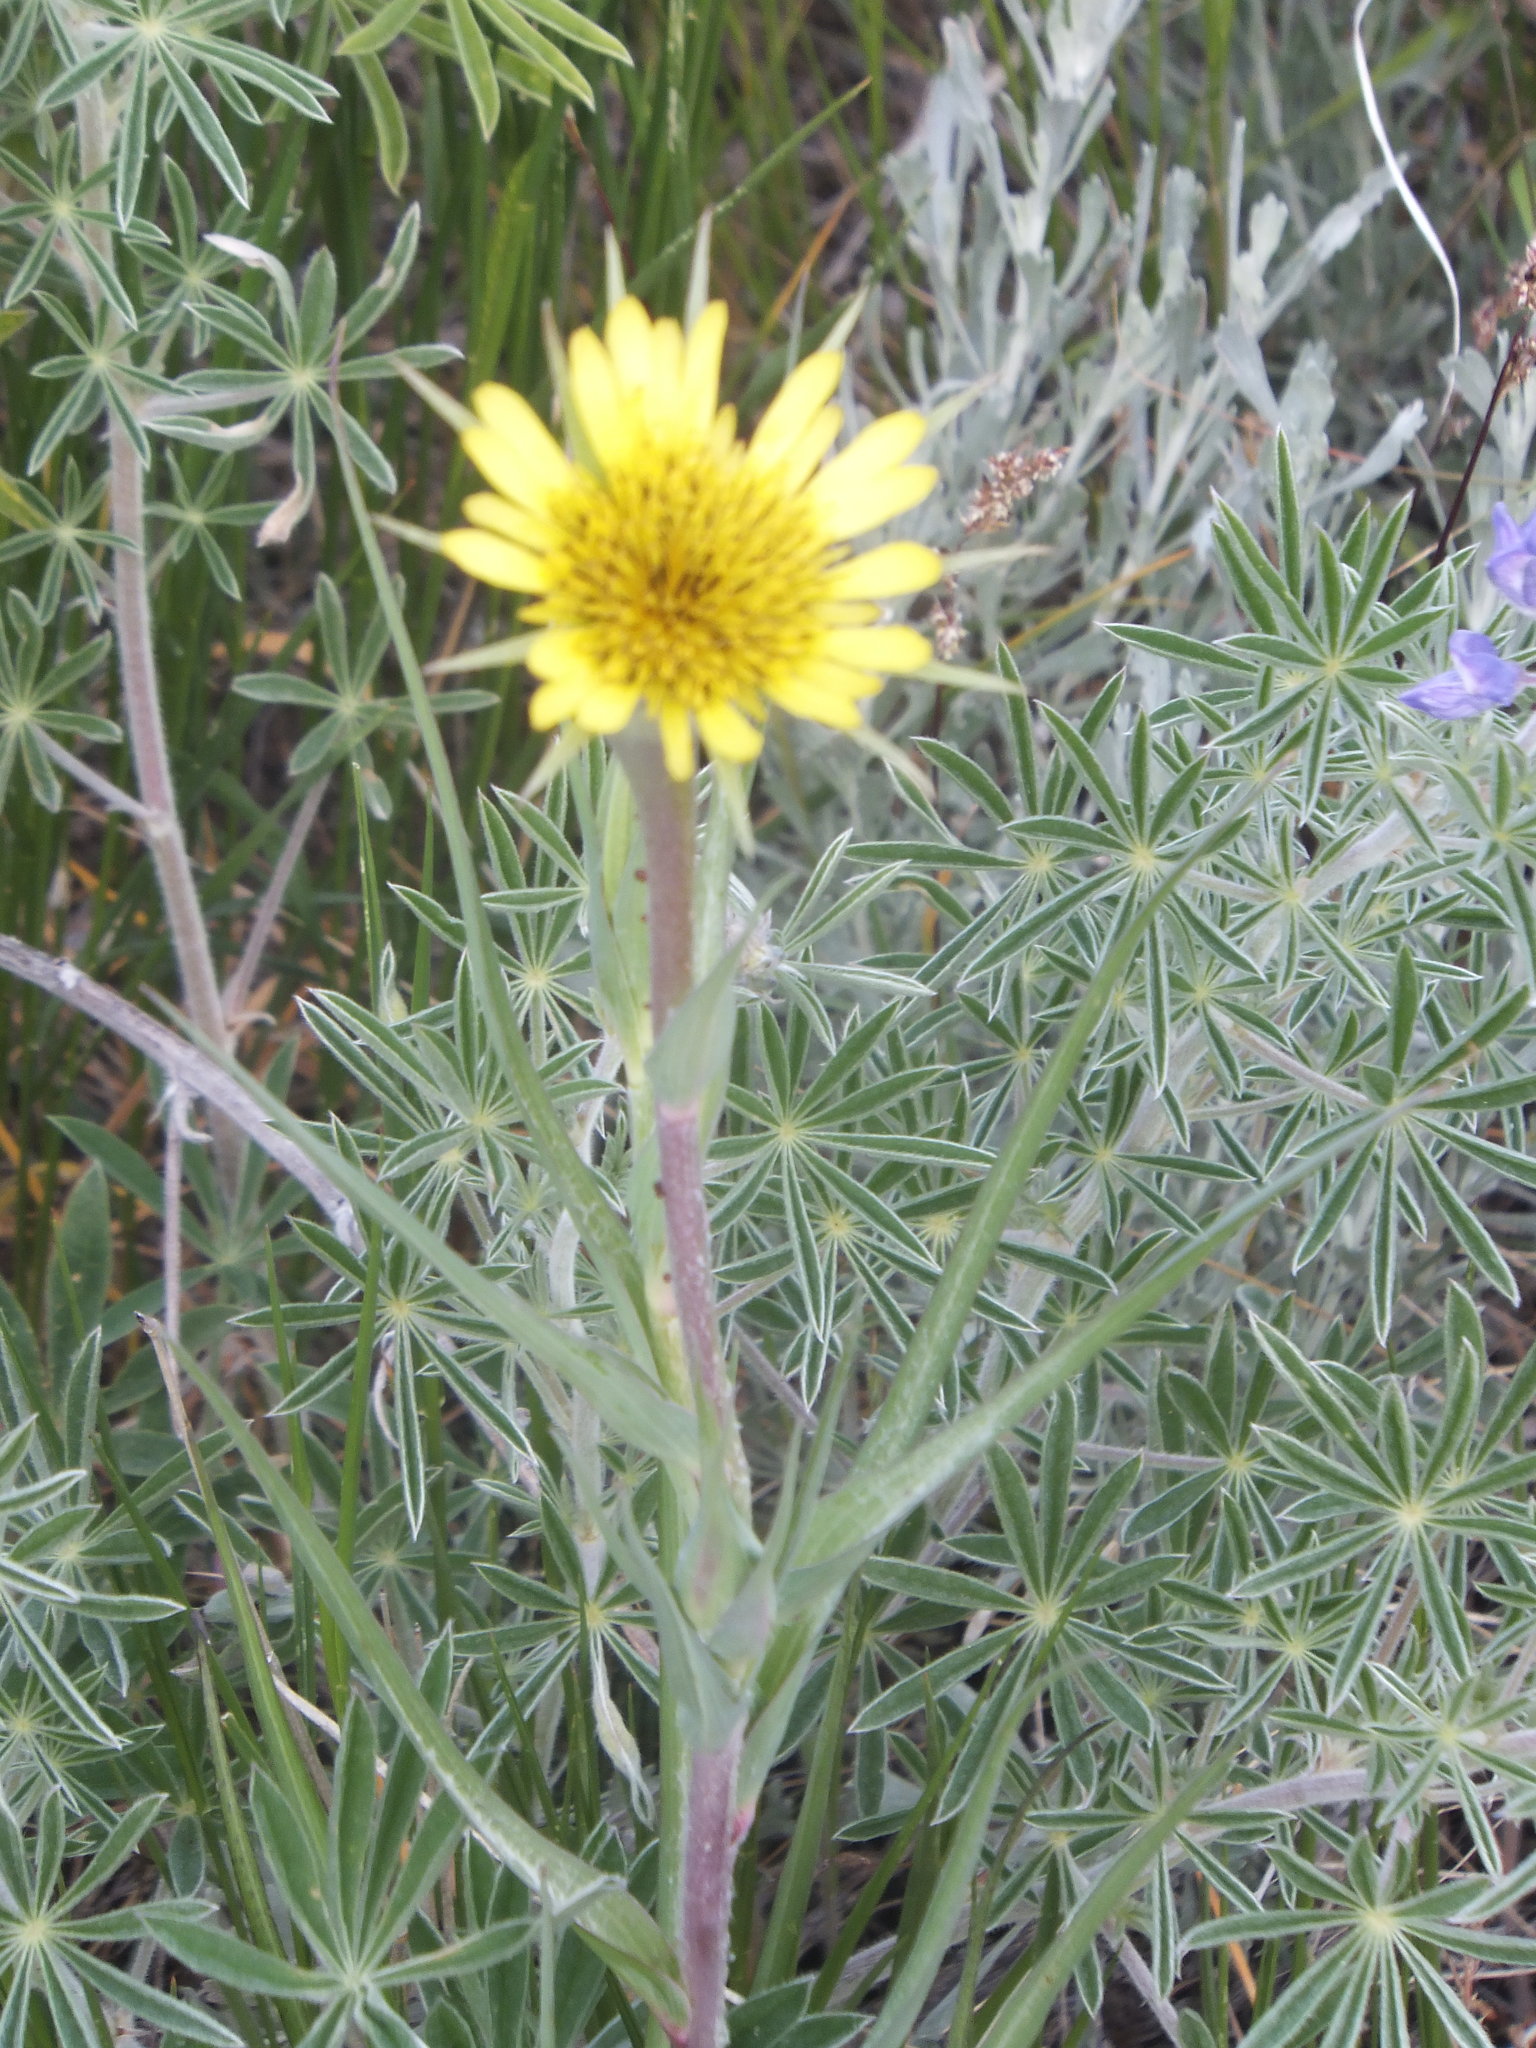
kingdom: Plantae
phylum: Tracheophyta
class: Magnoliopsida
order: Asterales
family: Asteraceae
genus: Tragopogon
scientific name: Tragopogon dubius
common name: Yellow salsify
